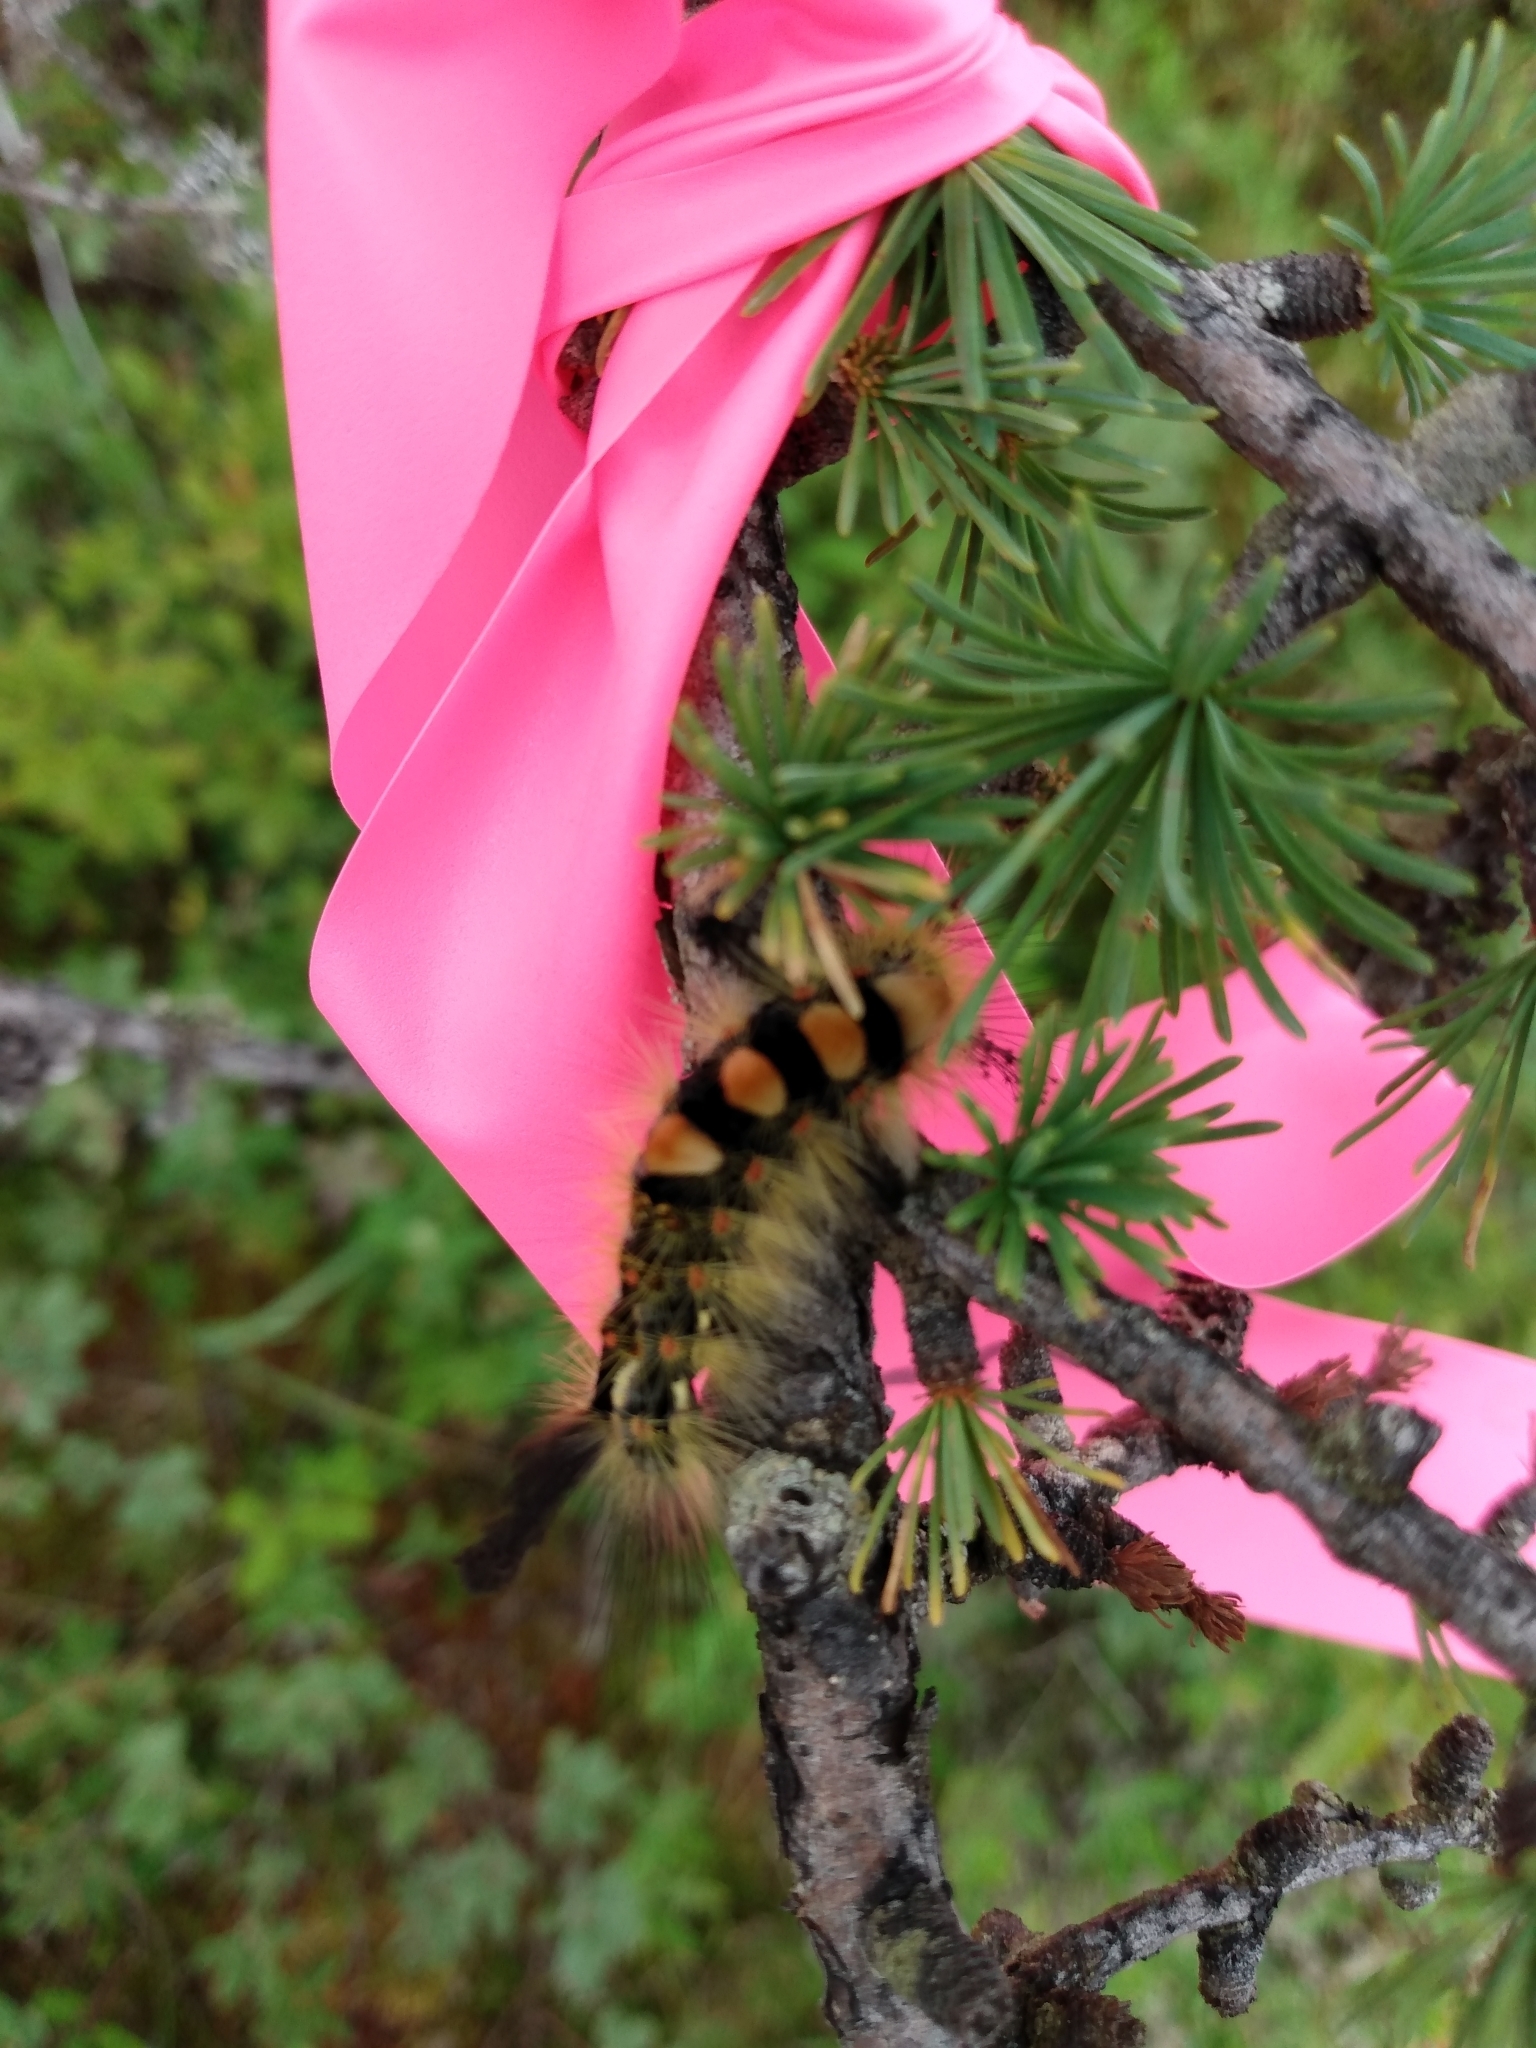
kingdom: Animalia
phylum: Arthropoda
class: Insecta
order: Lepidoptera
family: Erebidae
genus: Orgyia
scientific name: Orgyia antiqua
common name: Vapourer
